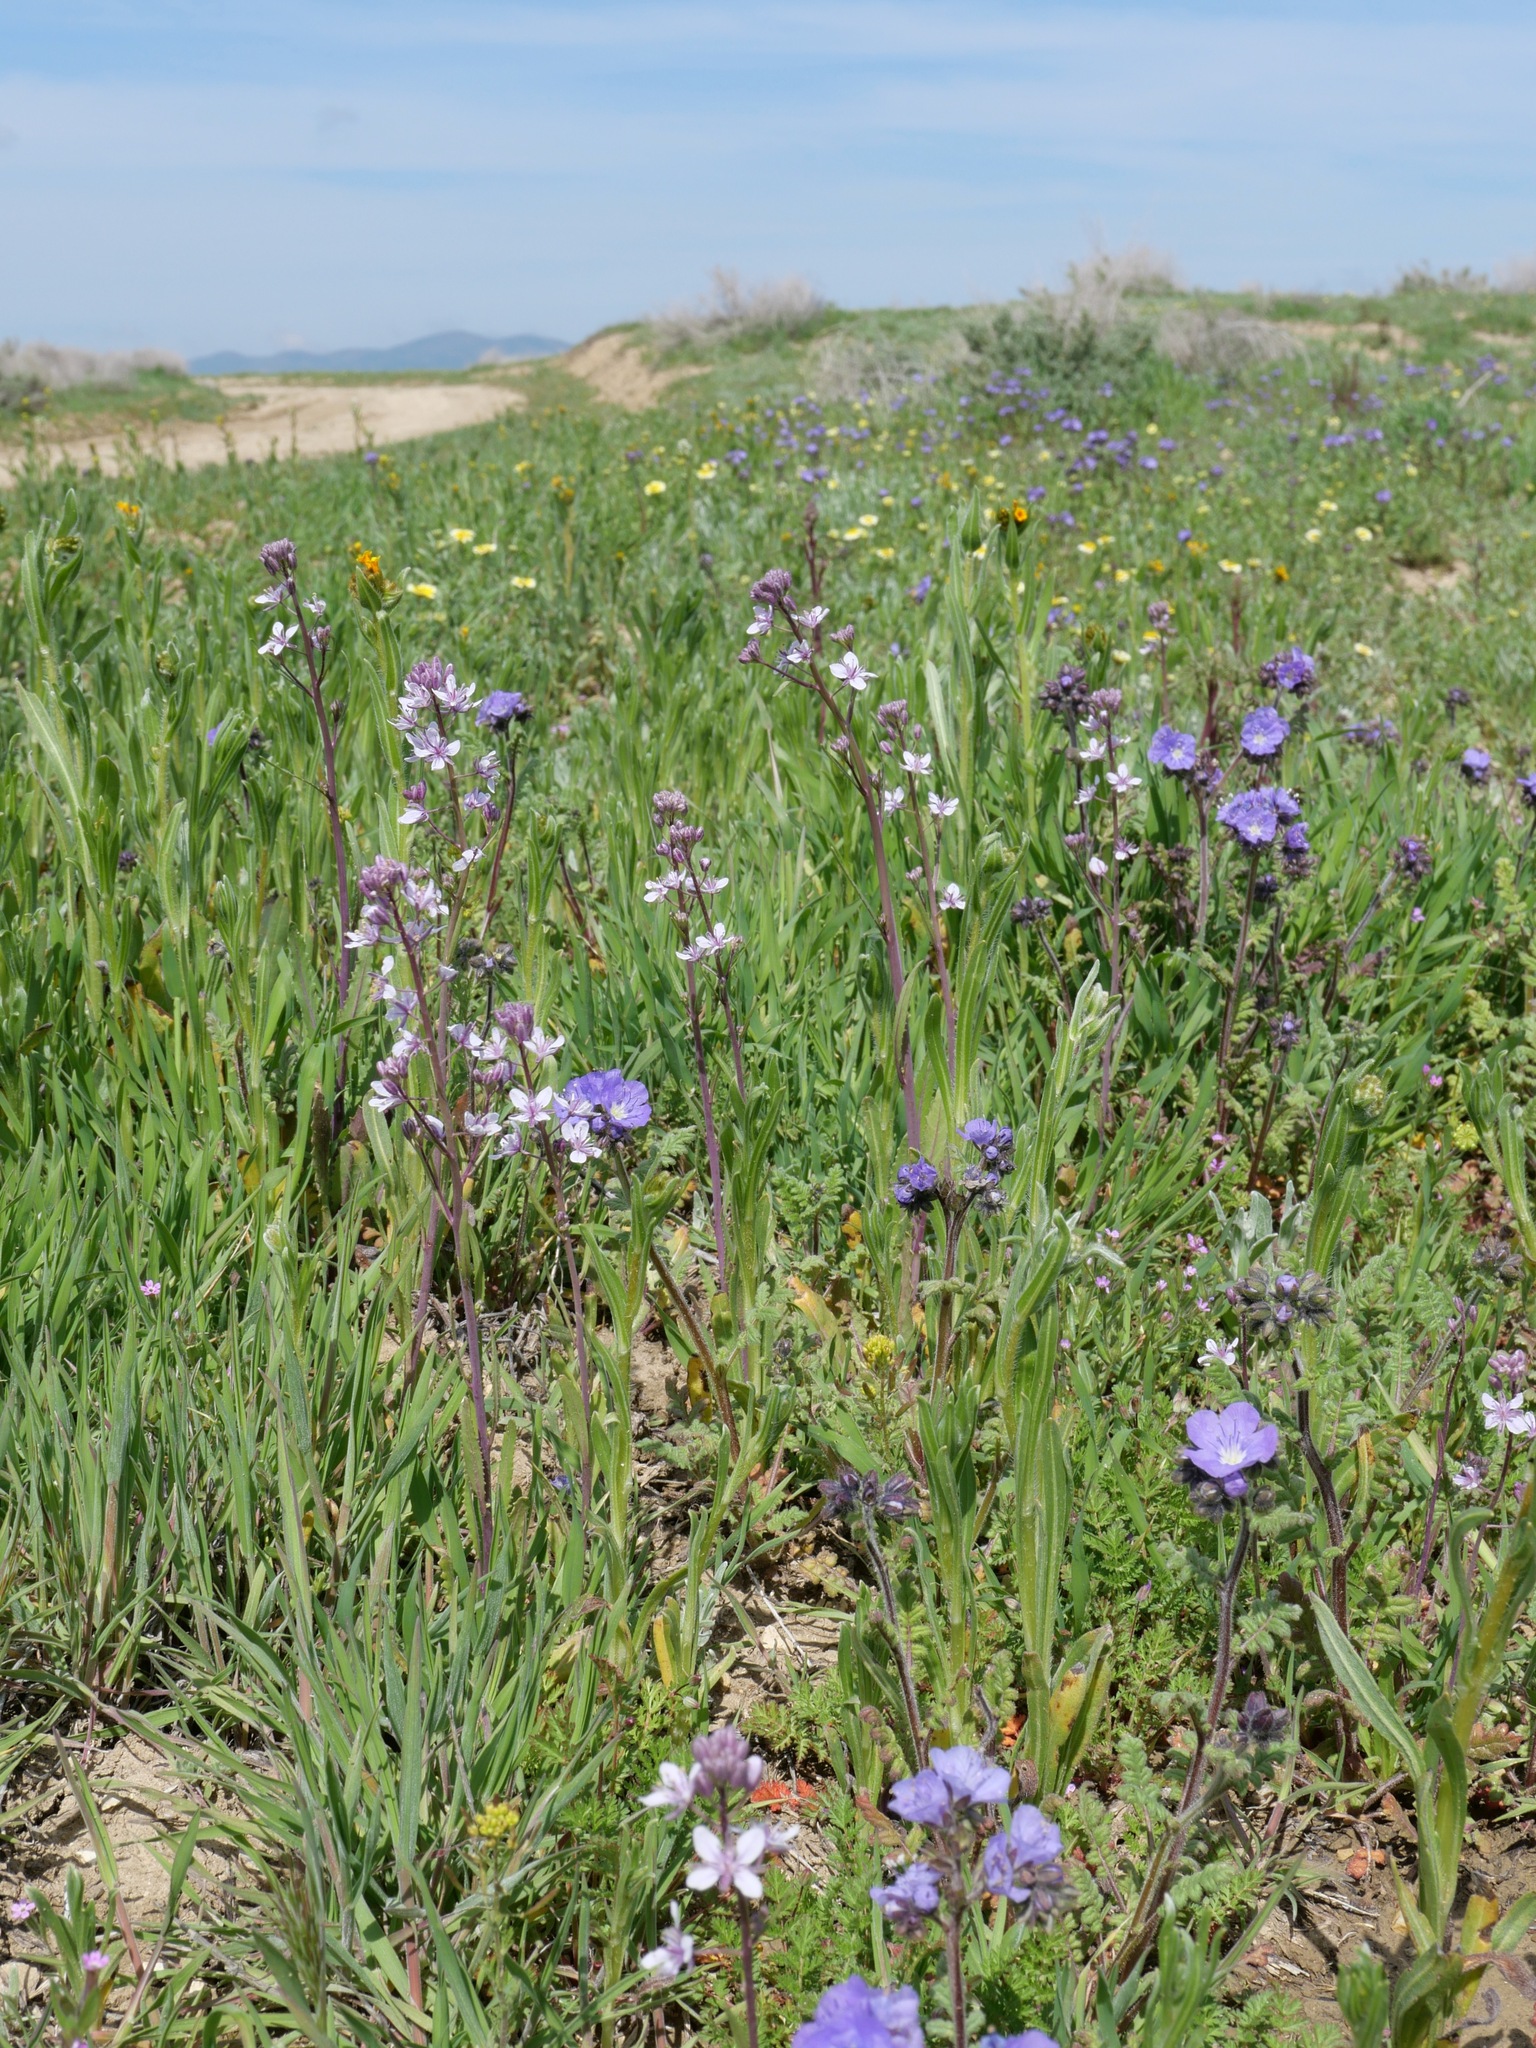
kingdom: Plantae
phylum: Tracheophyta
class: Magnoliopsida
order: Brassicales
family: Brassicaceae
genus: Streptanthus
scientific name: Streptanthus anceps
